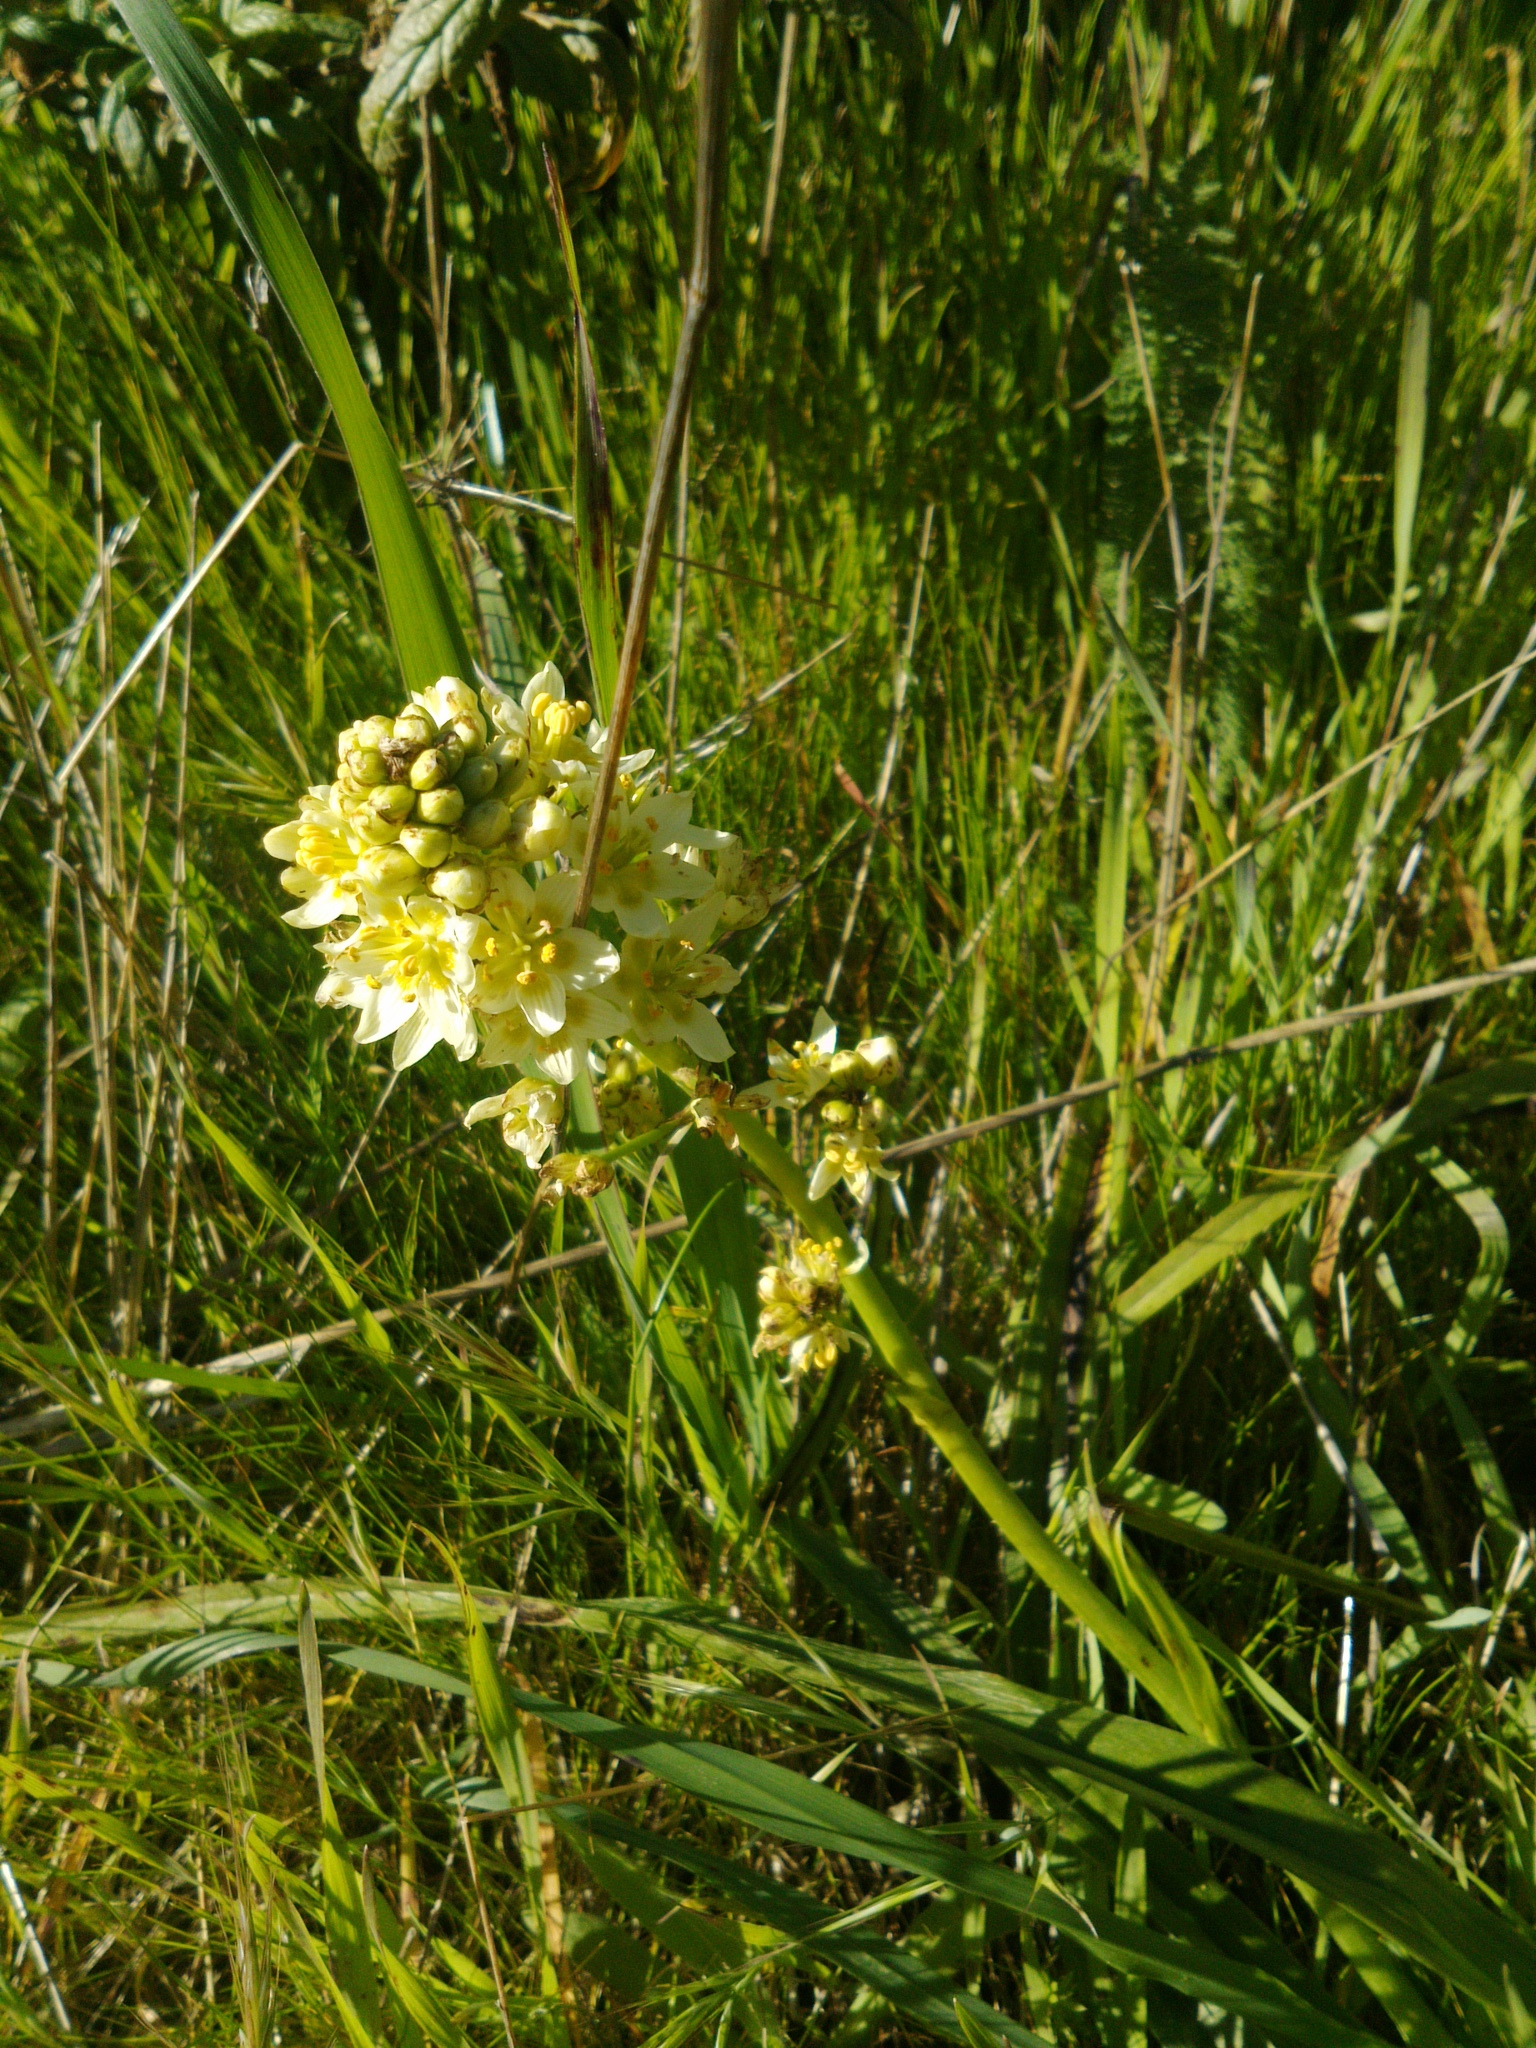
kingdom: Plantae
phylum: Tracheophyta
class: Liliopsida
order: Liliales
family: Melanthiaceae
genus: Toxicoscordion
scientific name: Toxicoscordion fremontii
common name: Fremont's death camas
